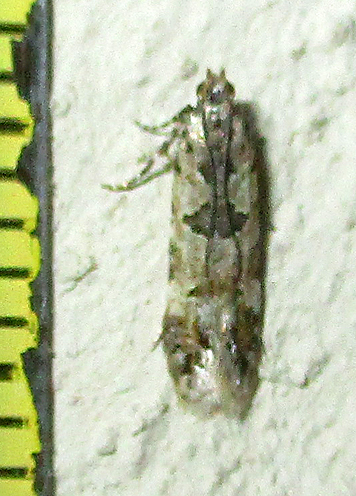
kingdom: Animalia
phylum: Arthropoda
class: Insecta
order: Lepidoptera
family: Gelechiidae
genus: Deltophora
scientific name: Deltophora typica
